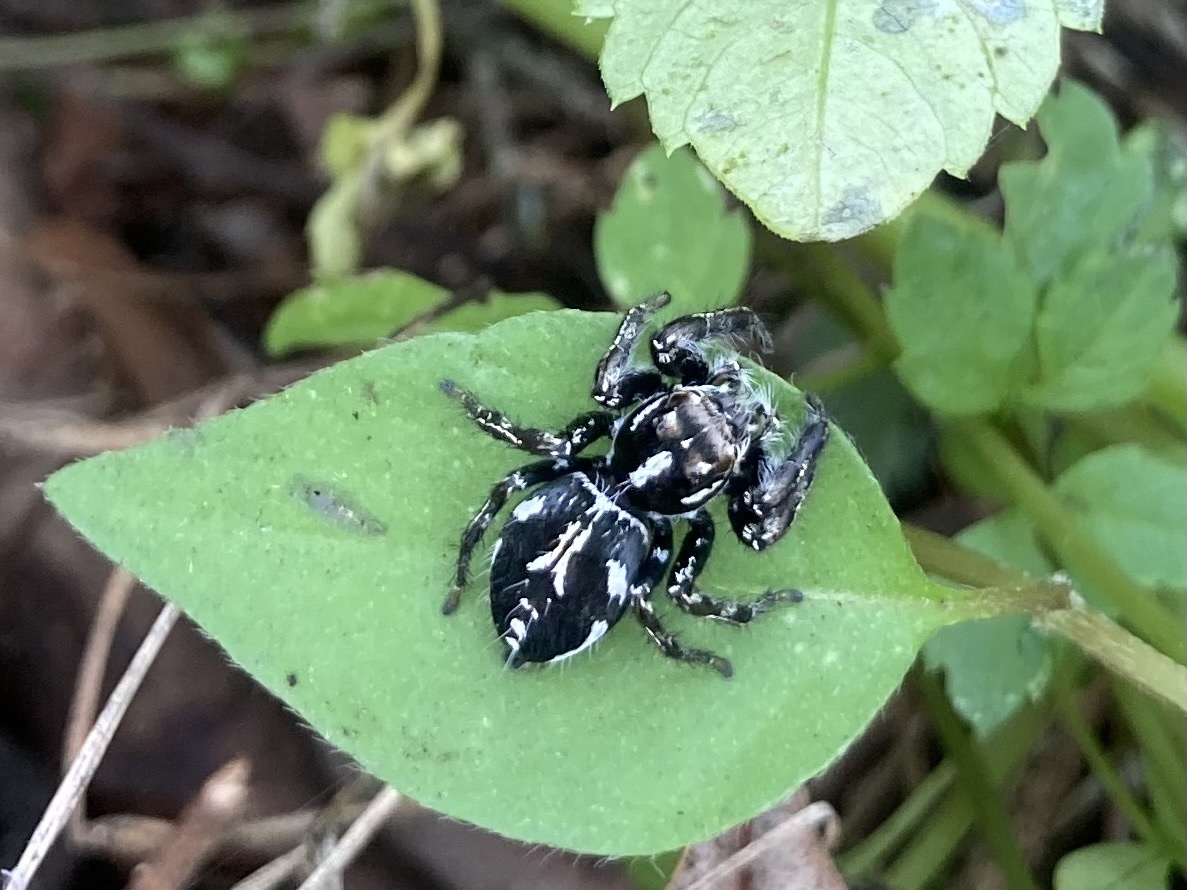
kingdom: Animalia
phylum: Arthropoda
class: Arachnida
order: Araneae
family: Salticidae
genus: Hyllus
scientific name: Hyllus argyrotoxus
